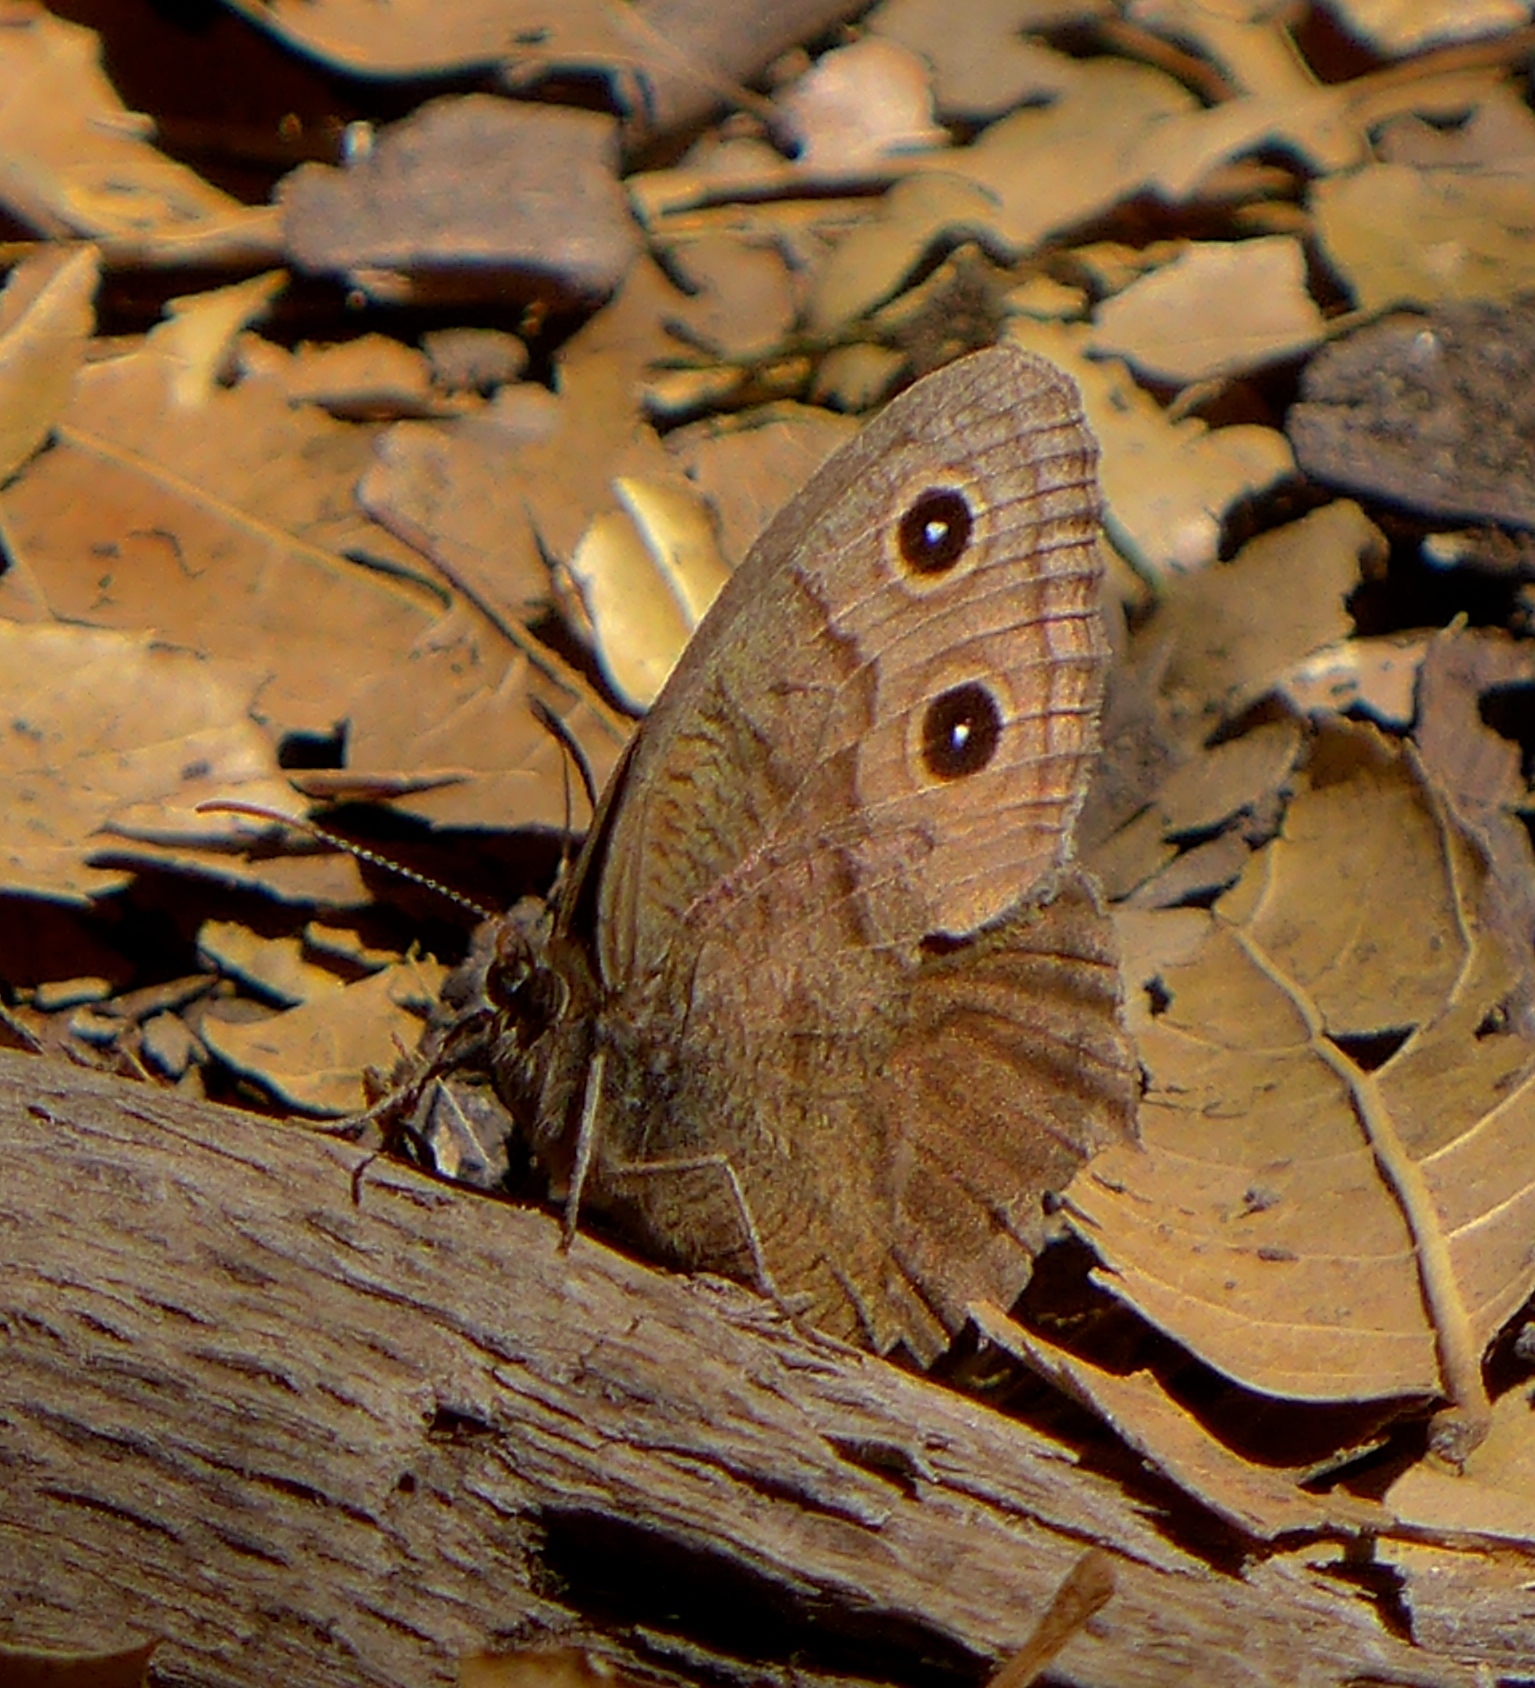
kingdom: Animalia
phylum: Arthropoda
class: Insecta
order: Lepidoptera
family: Nymphalidae
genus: Cercyonis
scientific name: Cercyonis pegala
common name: Common wood-nymph
